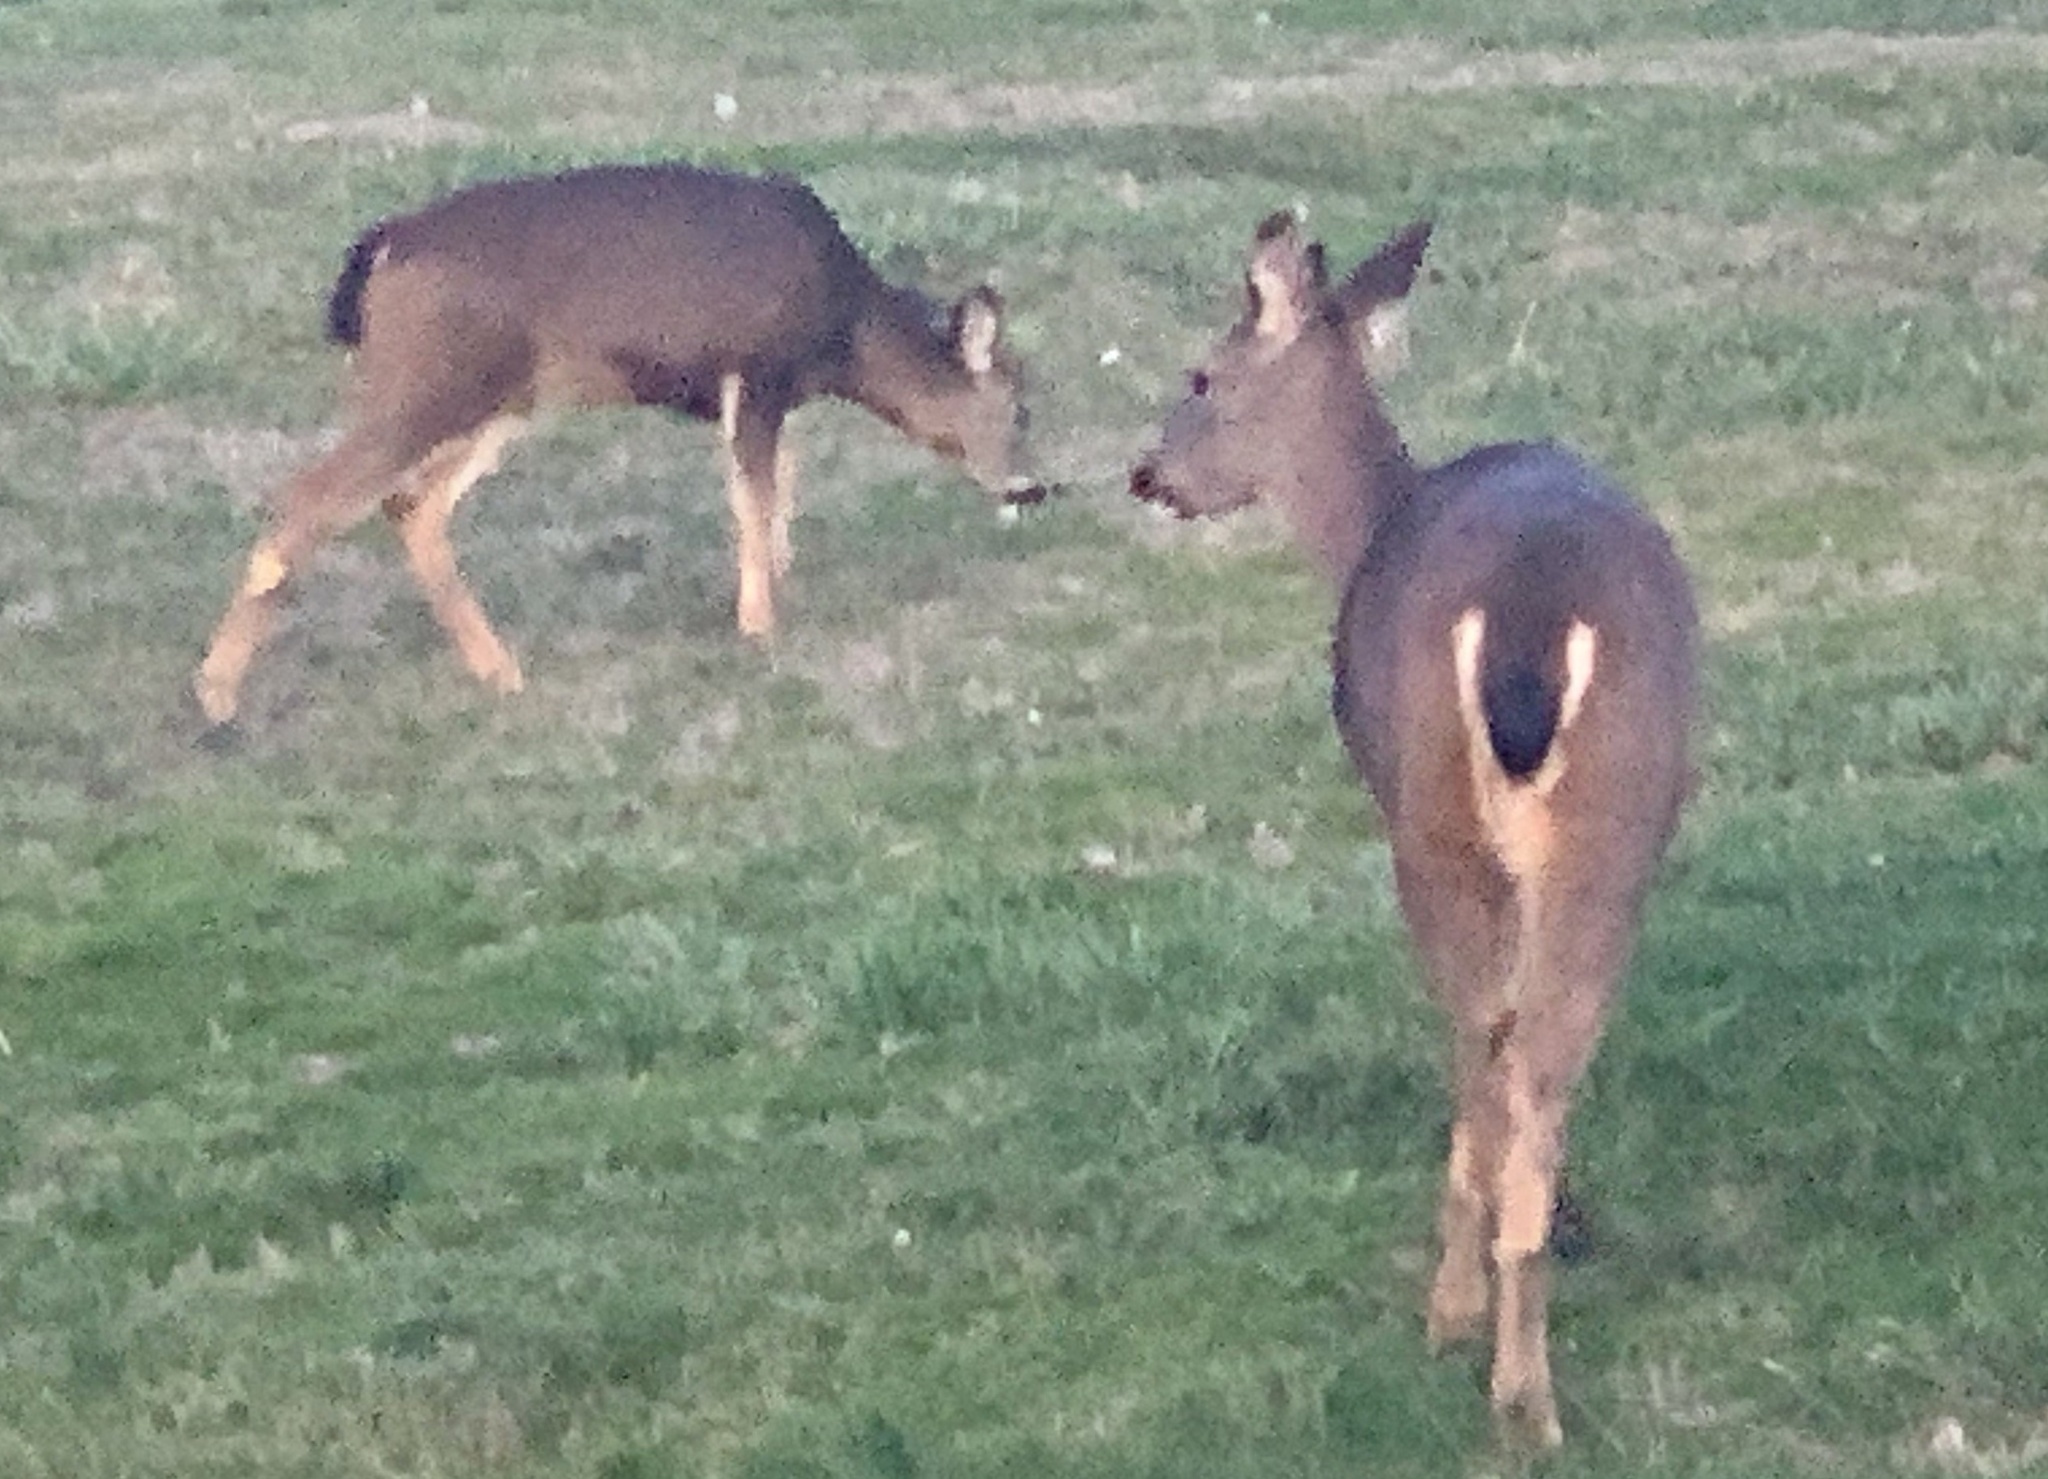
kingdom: Animalia
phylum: Chordata
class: Mammalia
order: Artiodactyla
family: Cervidae
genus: Odocoileus
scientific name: Odocoileus hemionus
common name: Mule deer
